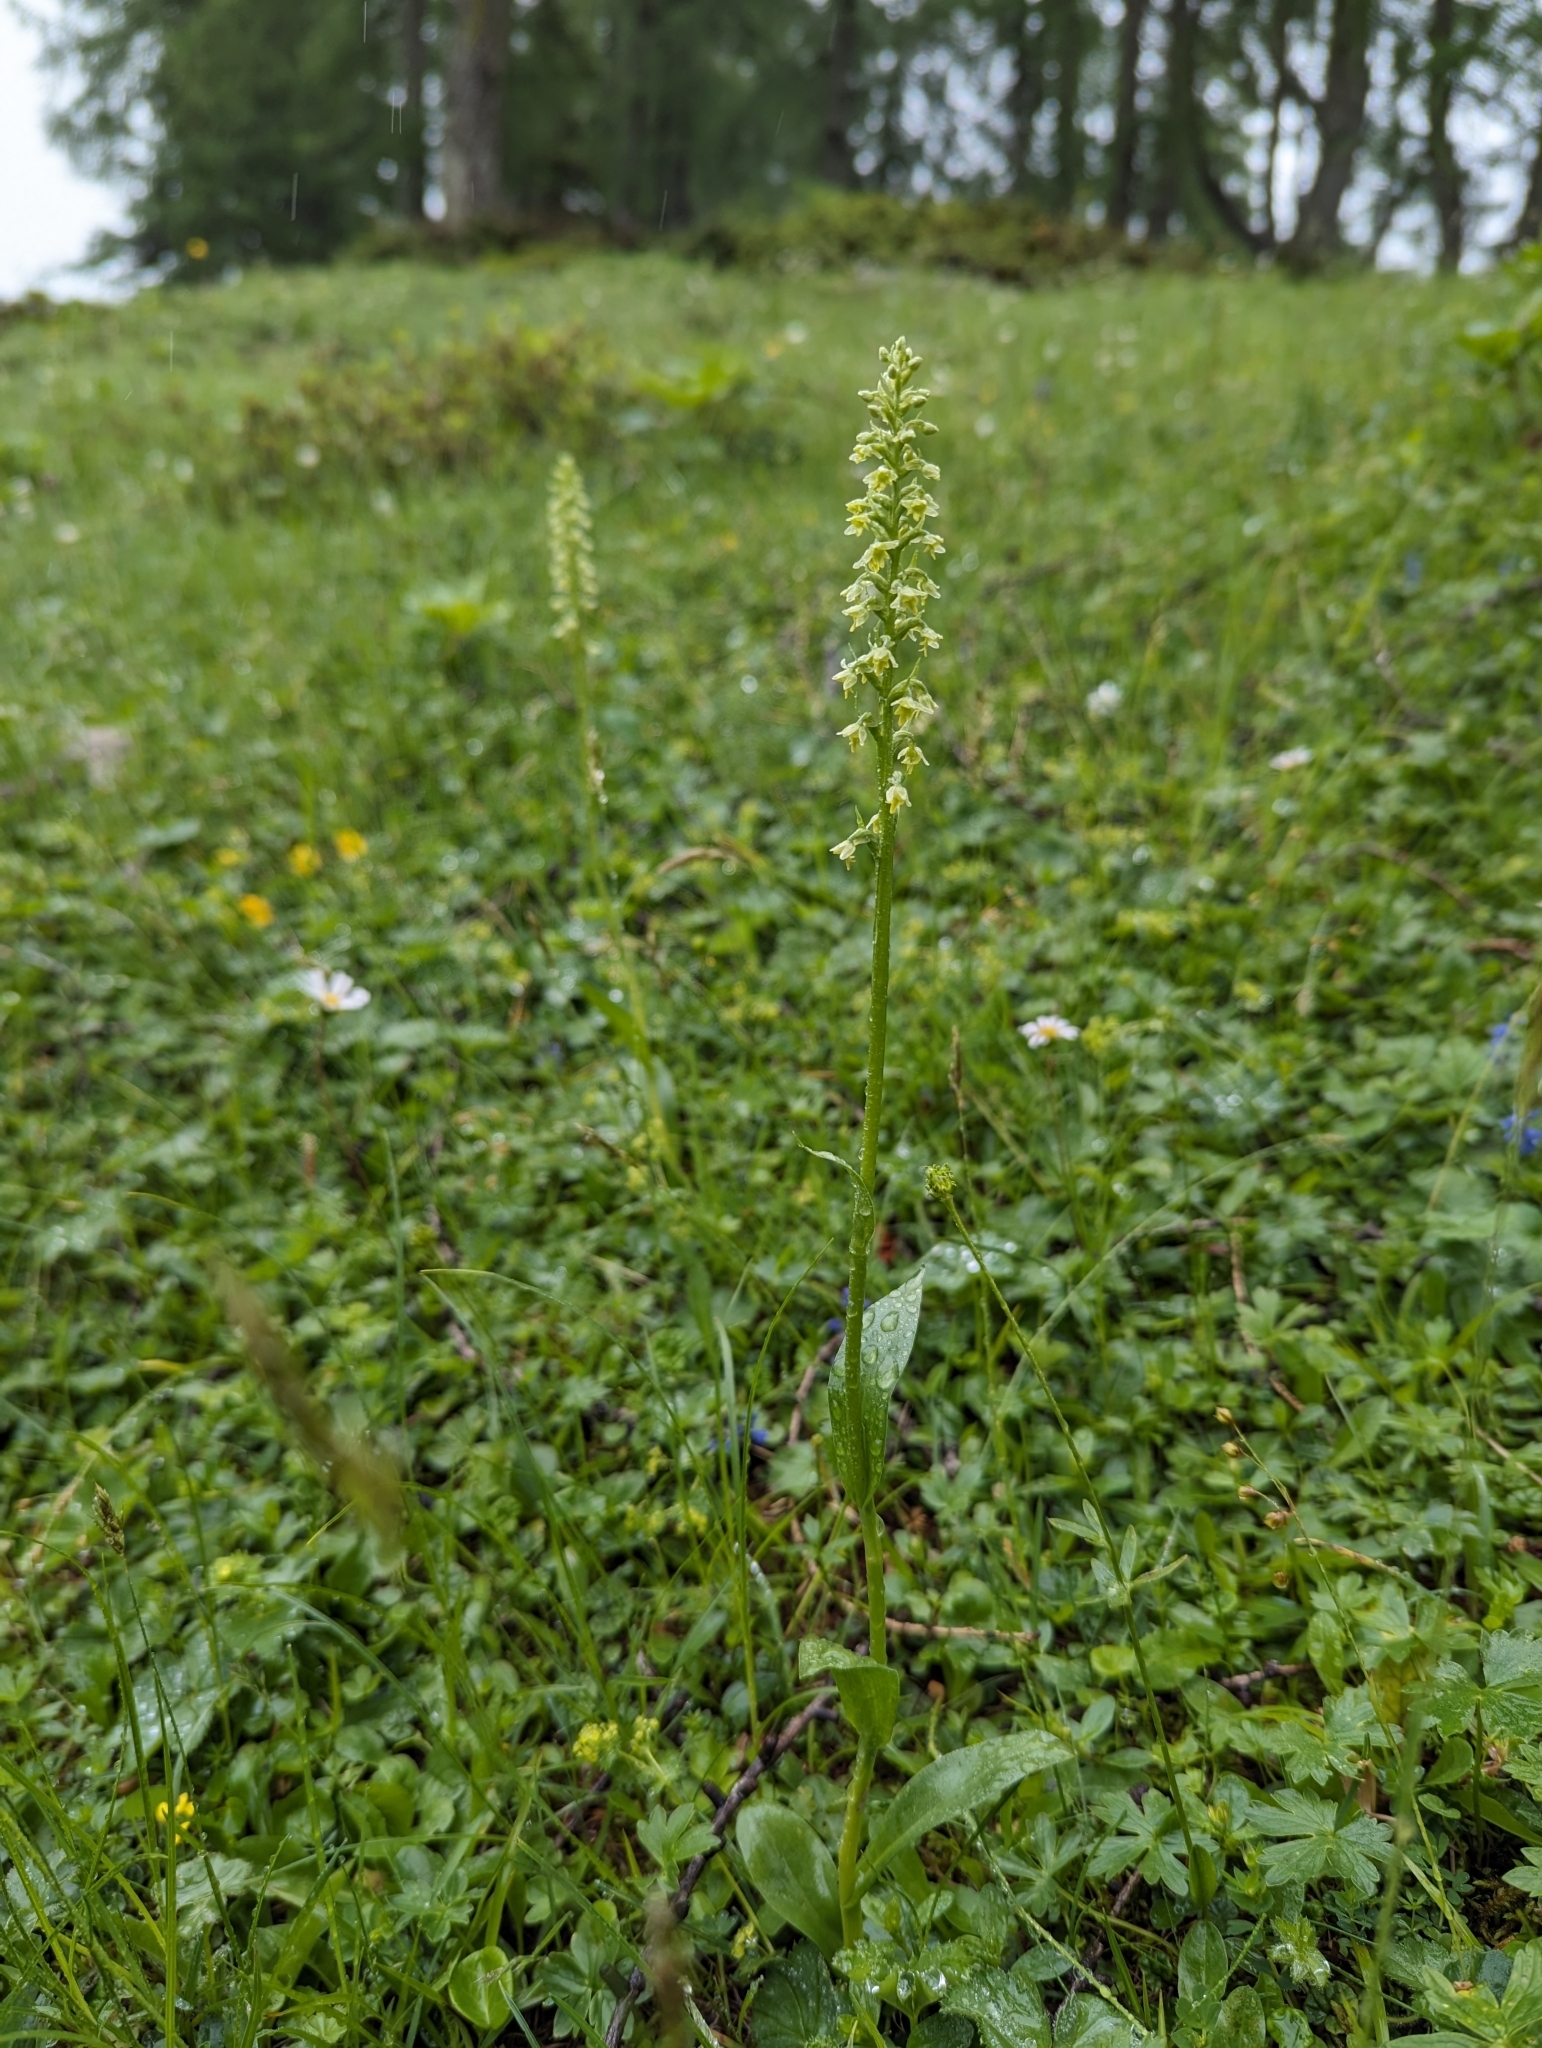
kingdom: Plantae
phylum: Tracheophyta
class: Liliopsida
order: Asparagales
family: Orchidaceae
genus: Pseudorchis
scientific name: Pseudorchis albida
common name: Small-white orchid
